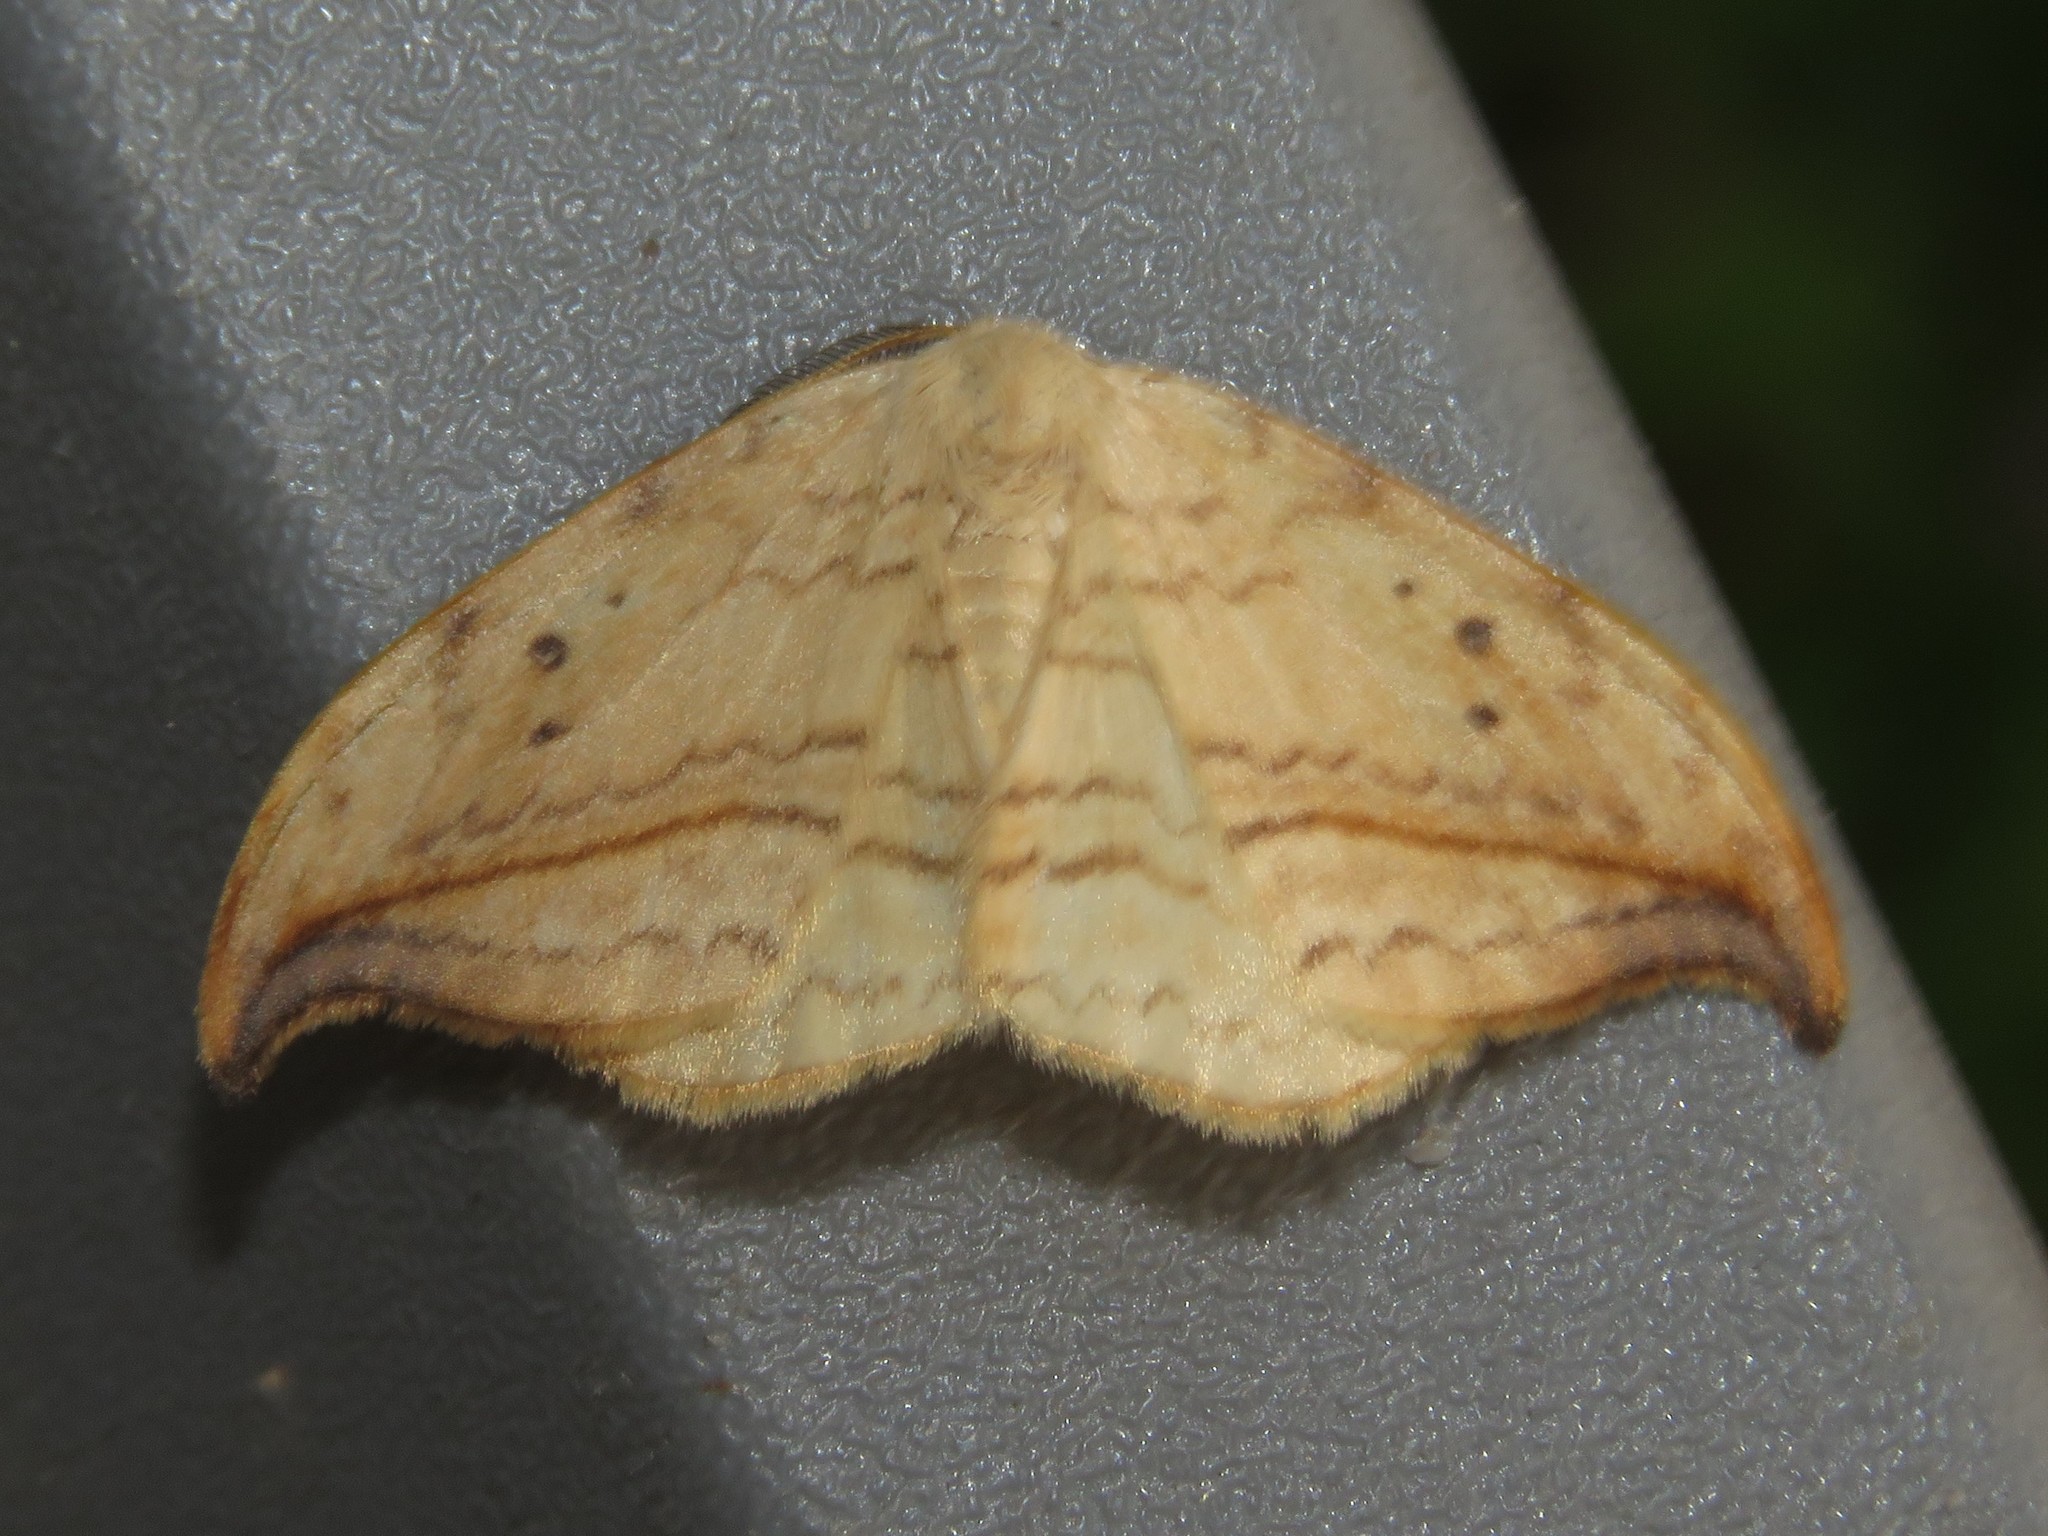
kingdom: Animalia
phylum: Arthropoda
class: Insecta
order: Lepidoptera
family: Drepanidae
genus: Drepana
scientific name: Drepana arcuata
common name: Arched hooktip moth
